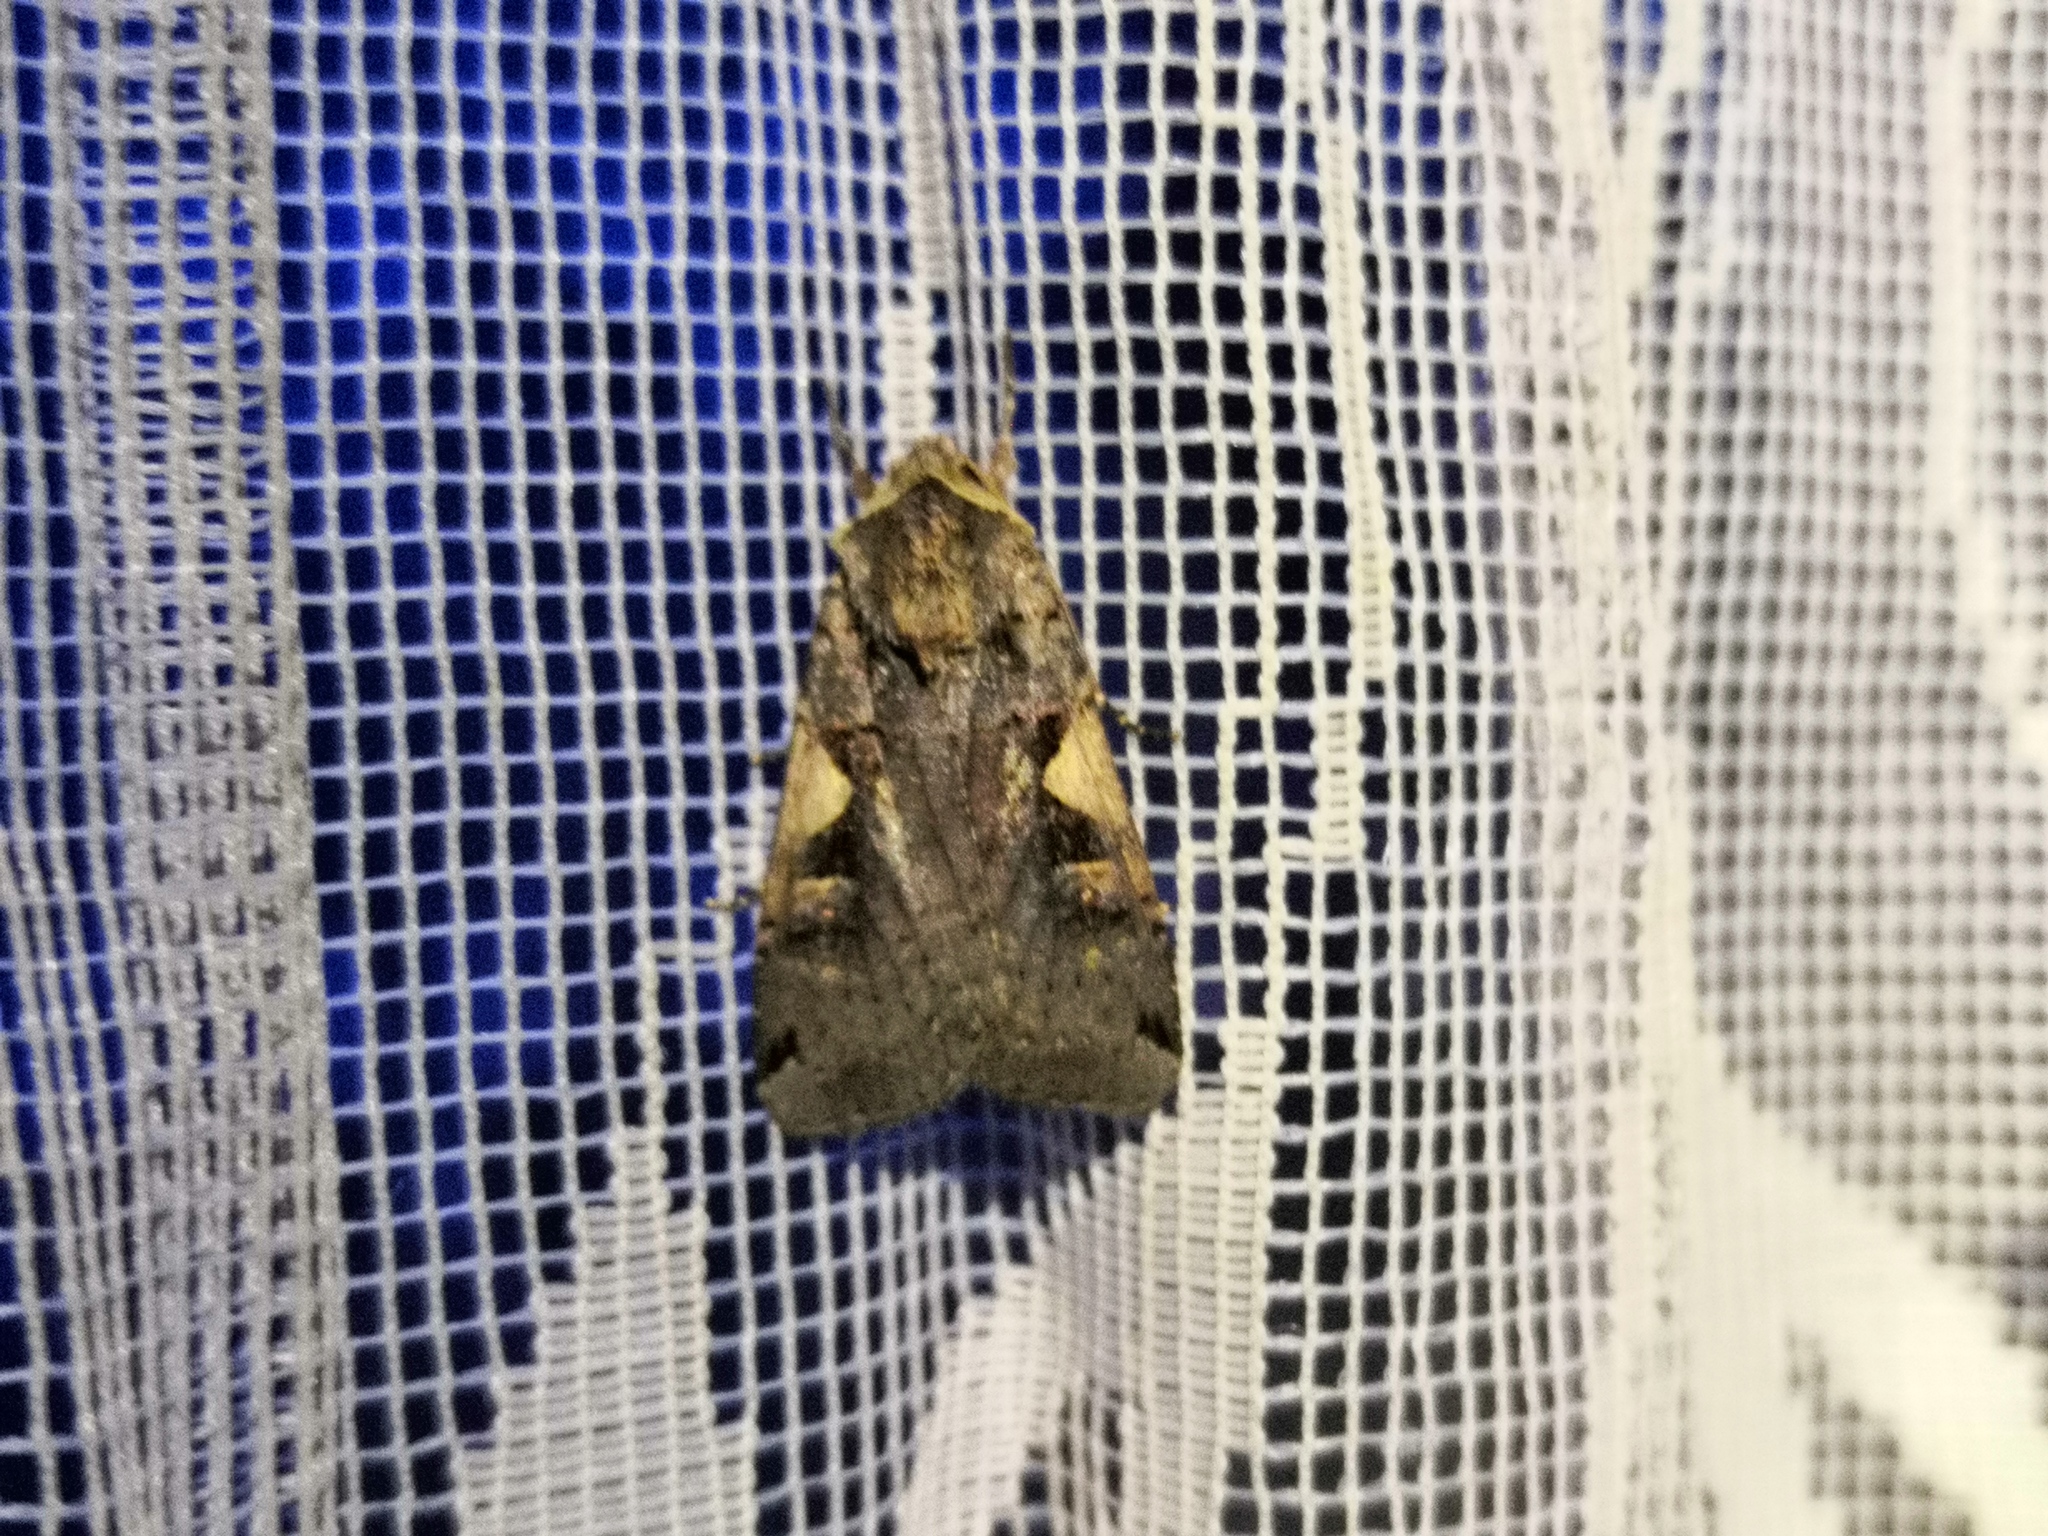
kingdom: Animalia
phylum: Arthropoda
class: Insecta
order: Lepidoptera
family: Noctuidae
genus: Xestia
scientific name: Xestia c-nigrum
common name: Setaceous hebrew character
